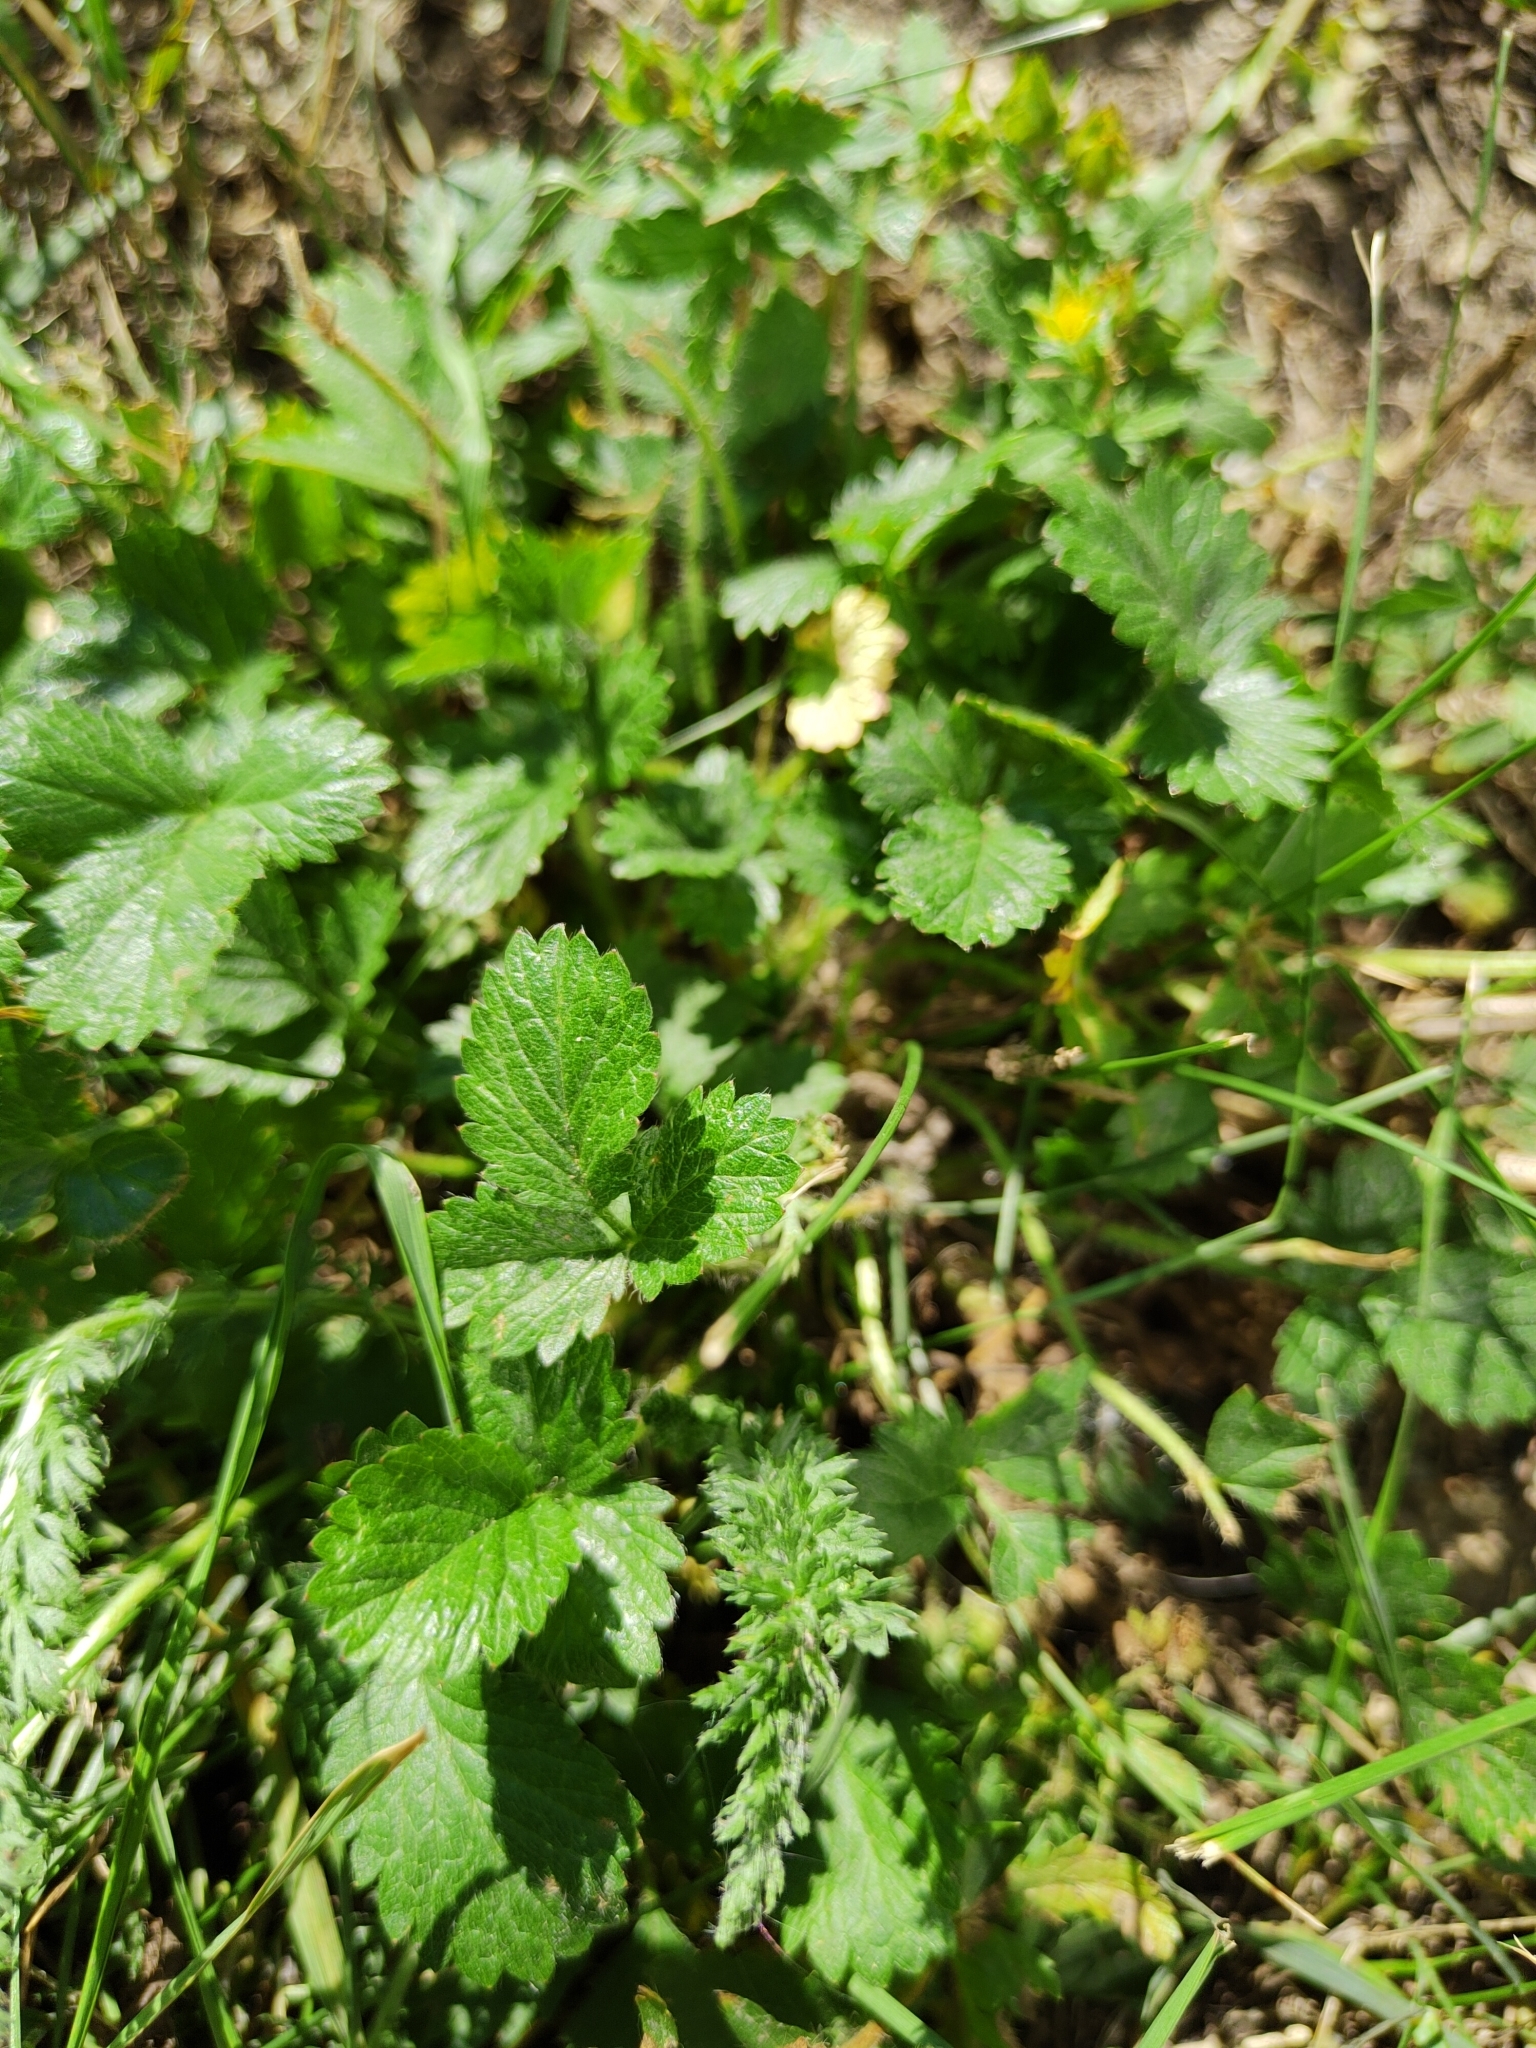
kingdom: Plantae
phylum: Tracheophyta
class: Magnoliopsida
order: Rosales
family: Rosaceae
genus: Potentilla
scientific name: Potentilla norvegica
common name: Ternate-leaved cinquefoil
